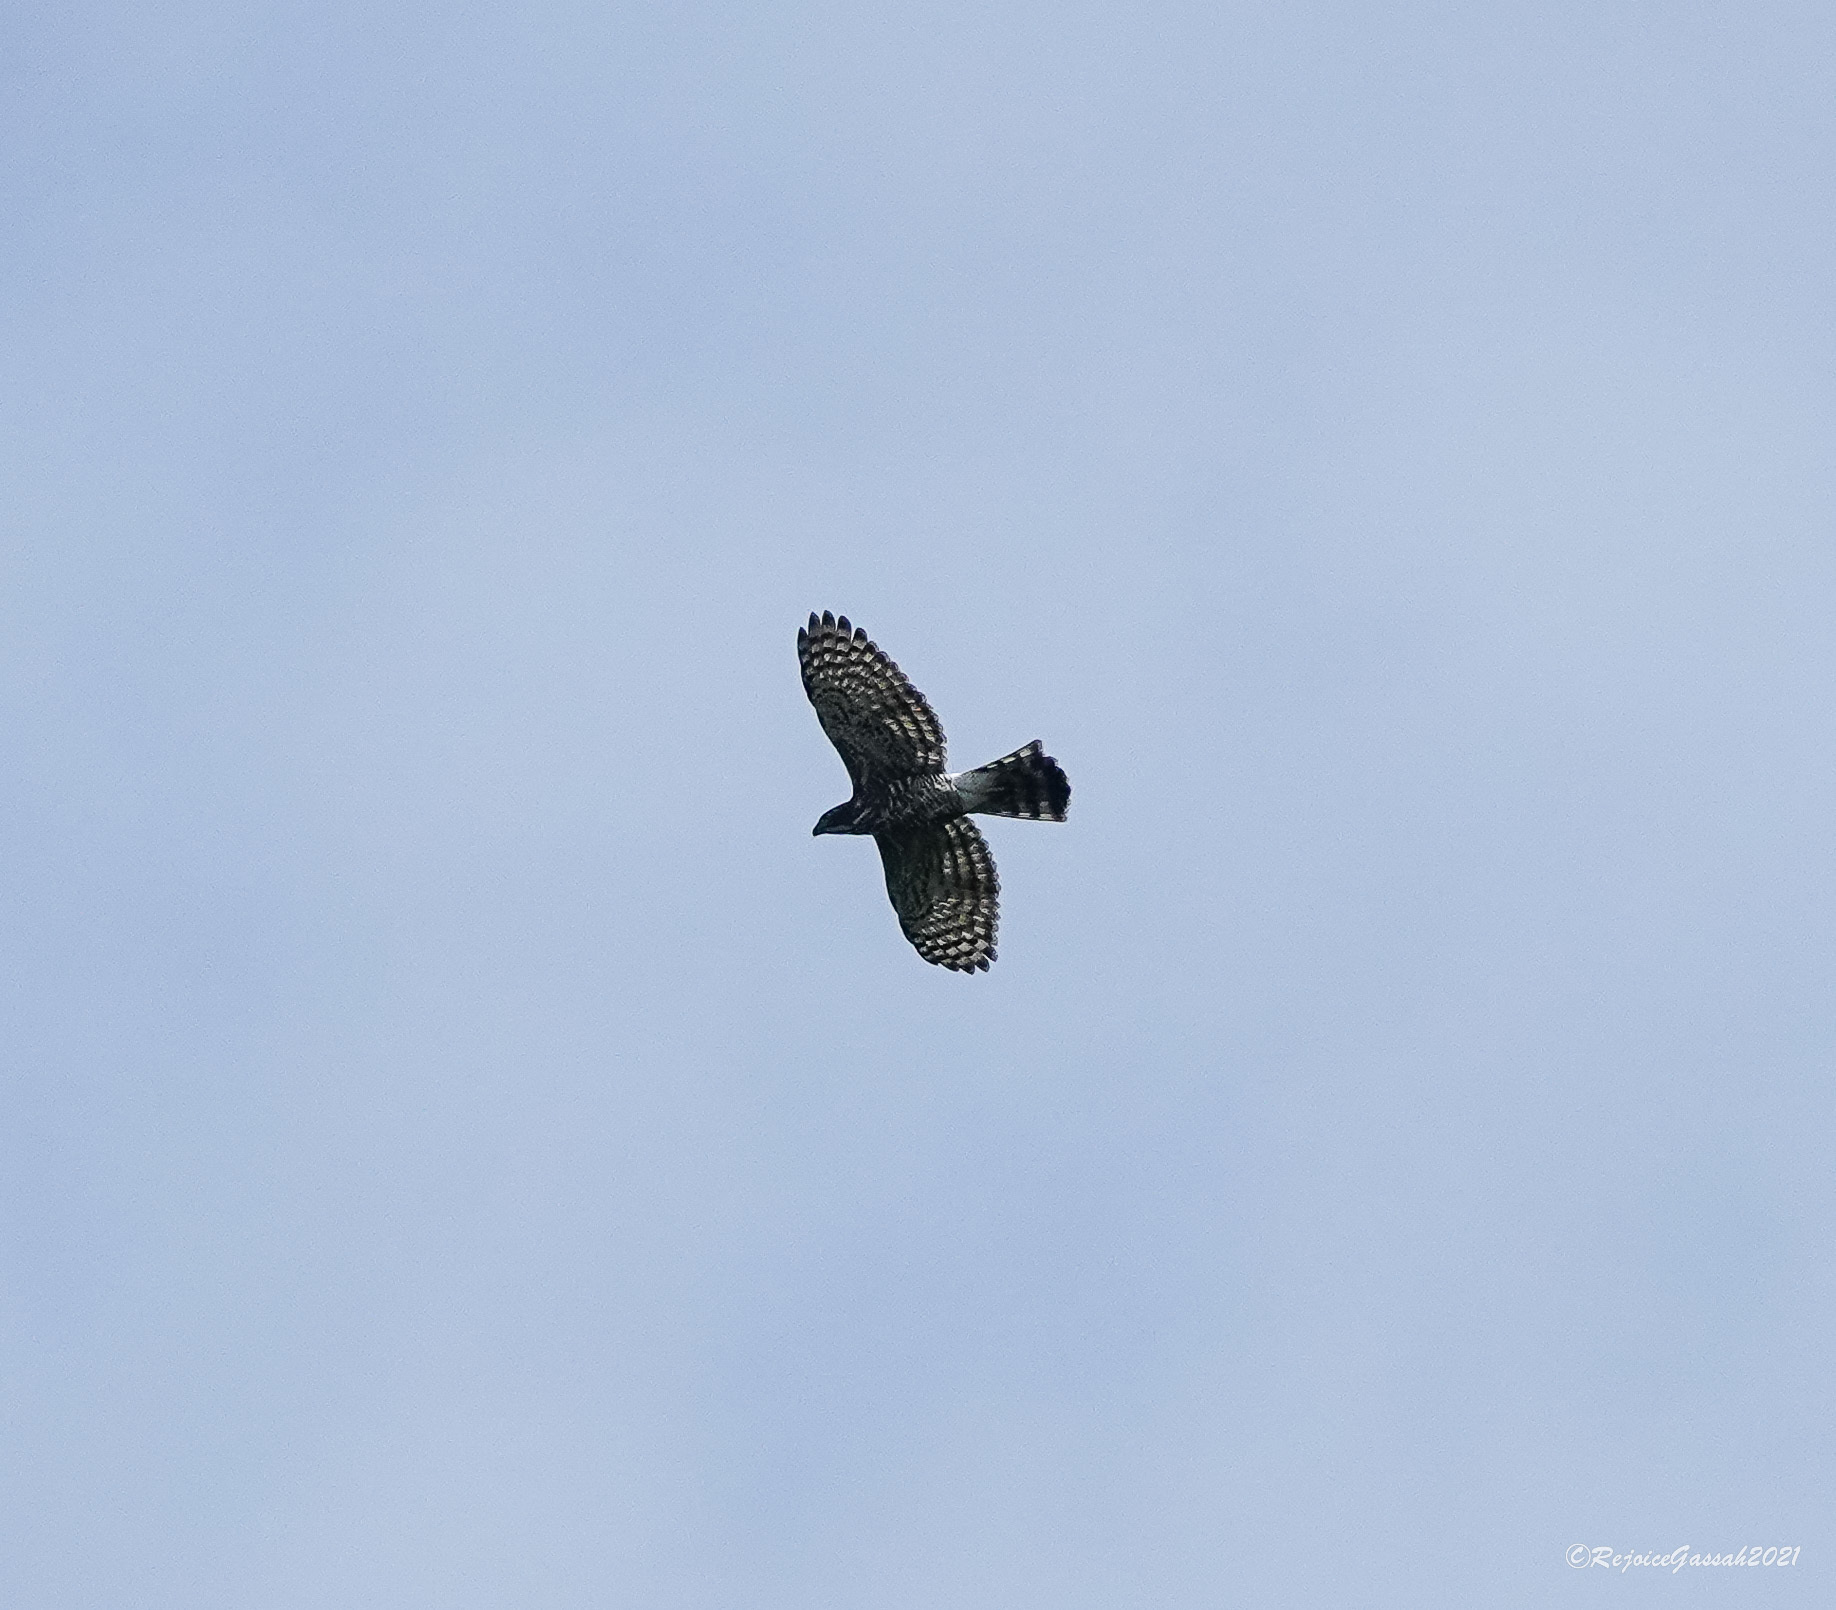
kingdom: Animalia
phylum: Chordata
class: Aves
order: Accipitriformes
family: Accipitridae
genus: Accipiter
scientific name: Accipiter trivirgatus
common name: Crested goshawk
